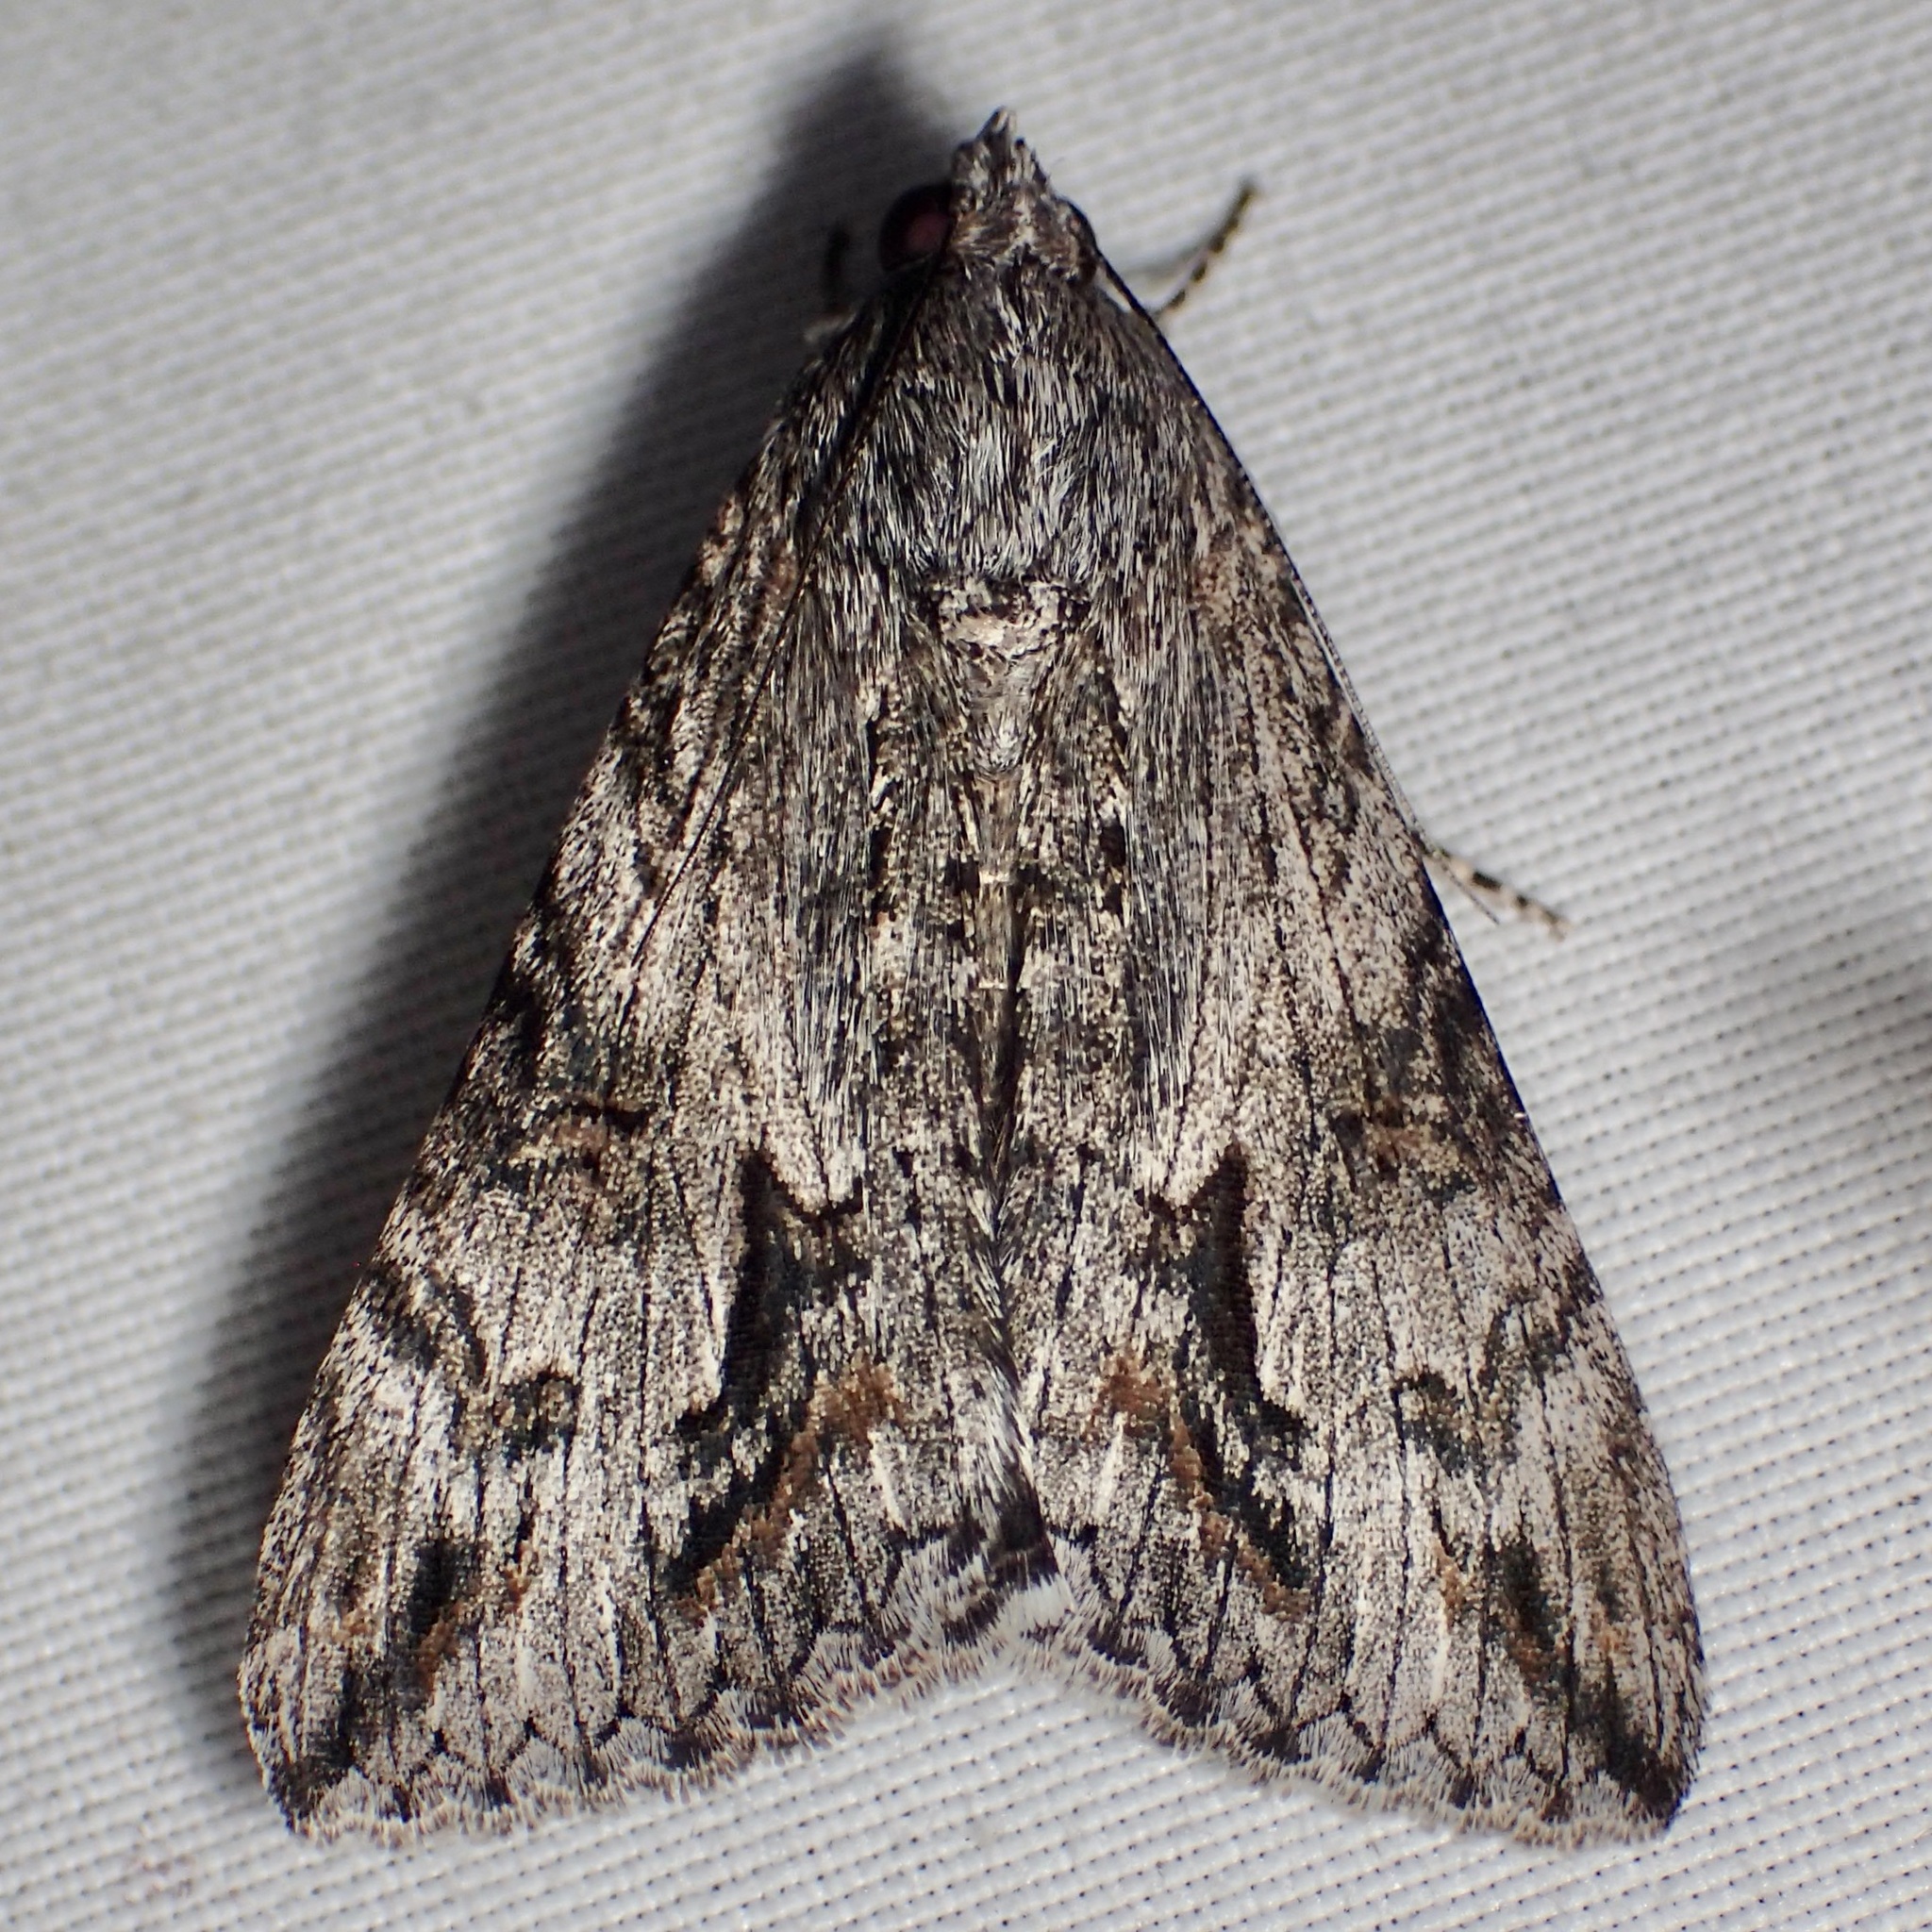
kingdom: Animalia
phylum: Arthropoda
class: Insecta
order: Lepidoptera
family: Erebidae
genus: Melipotis
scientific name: Melipotis jucunda
